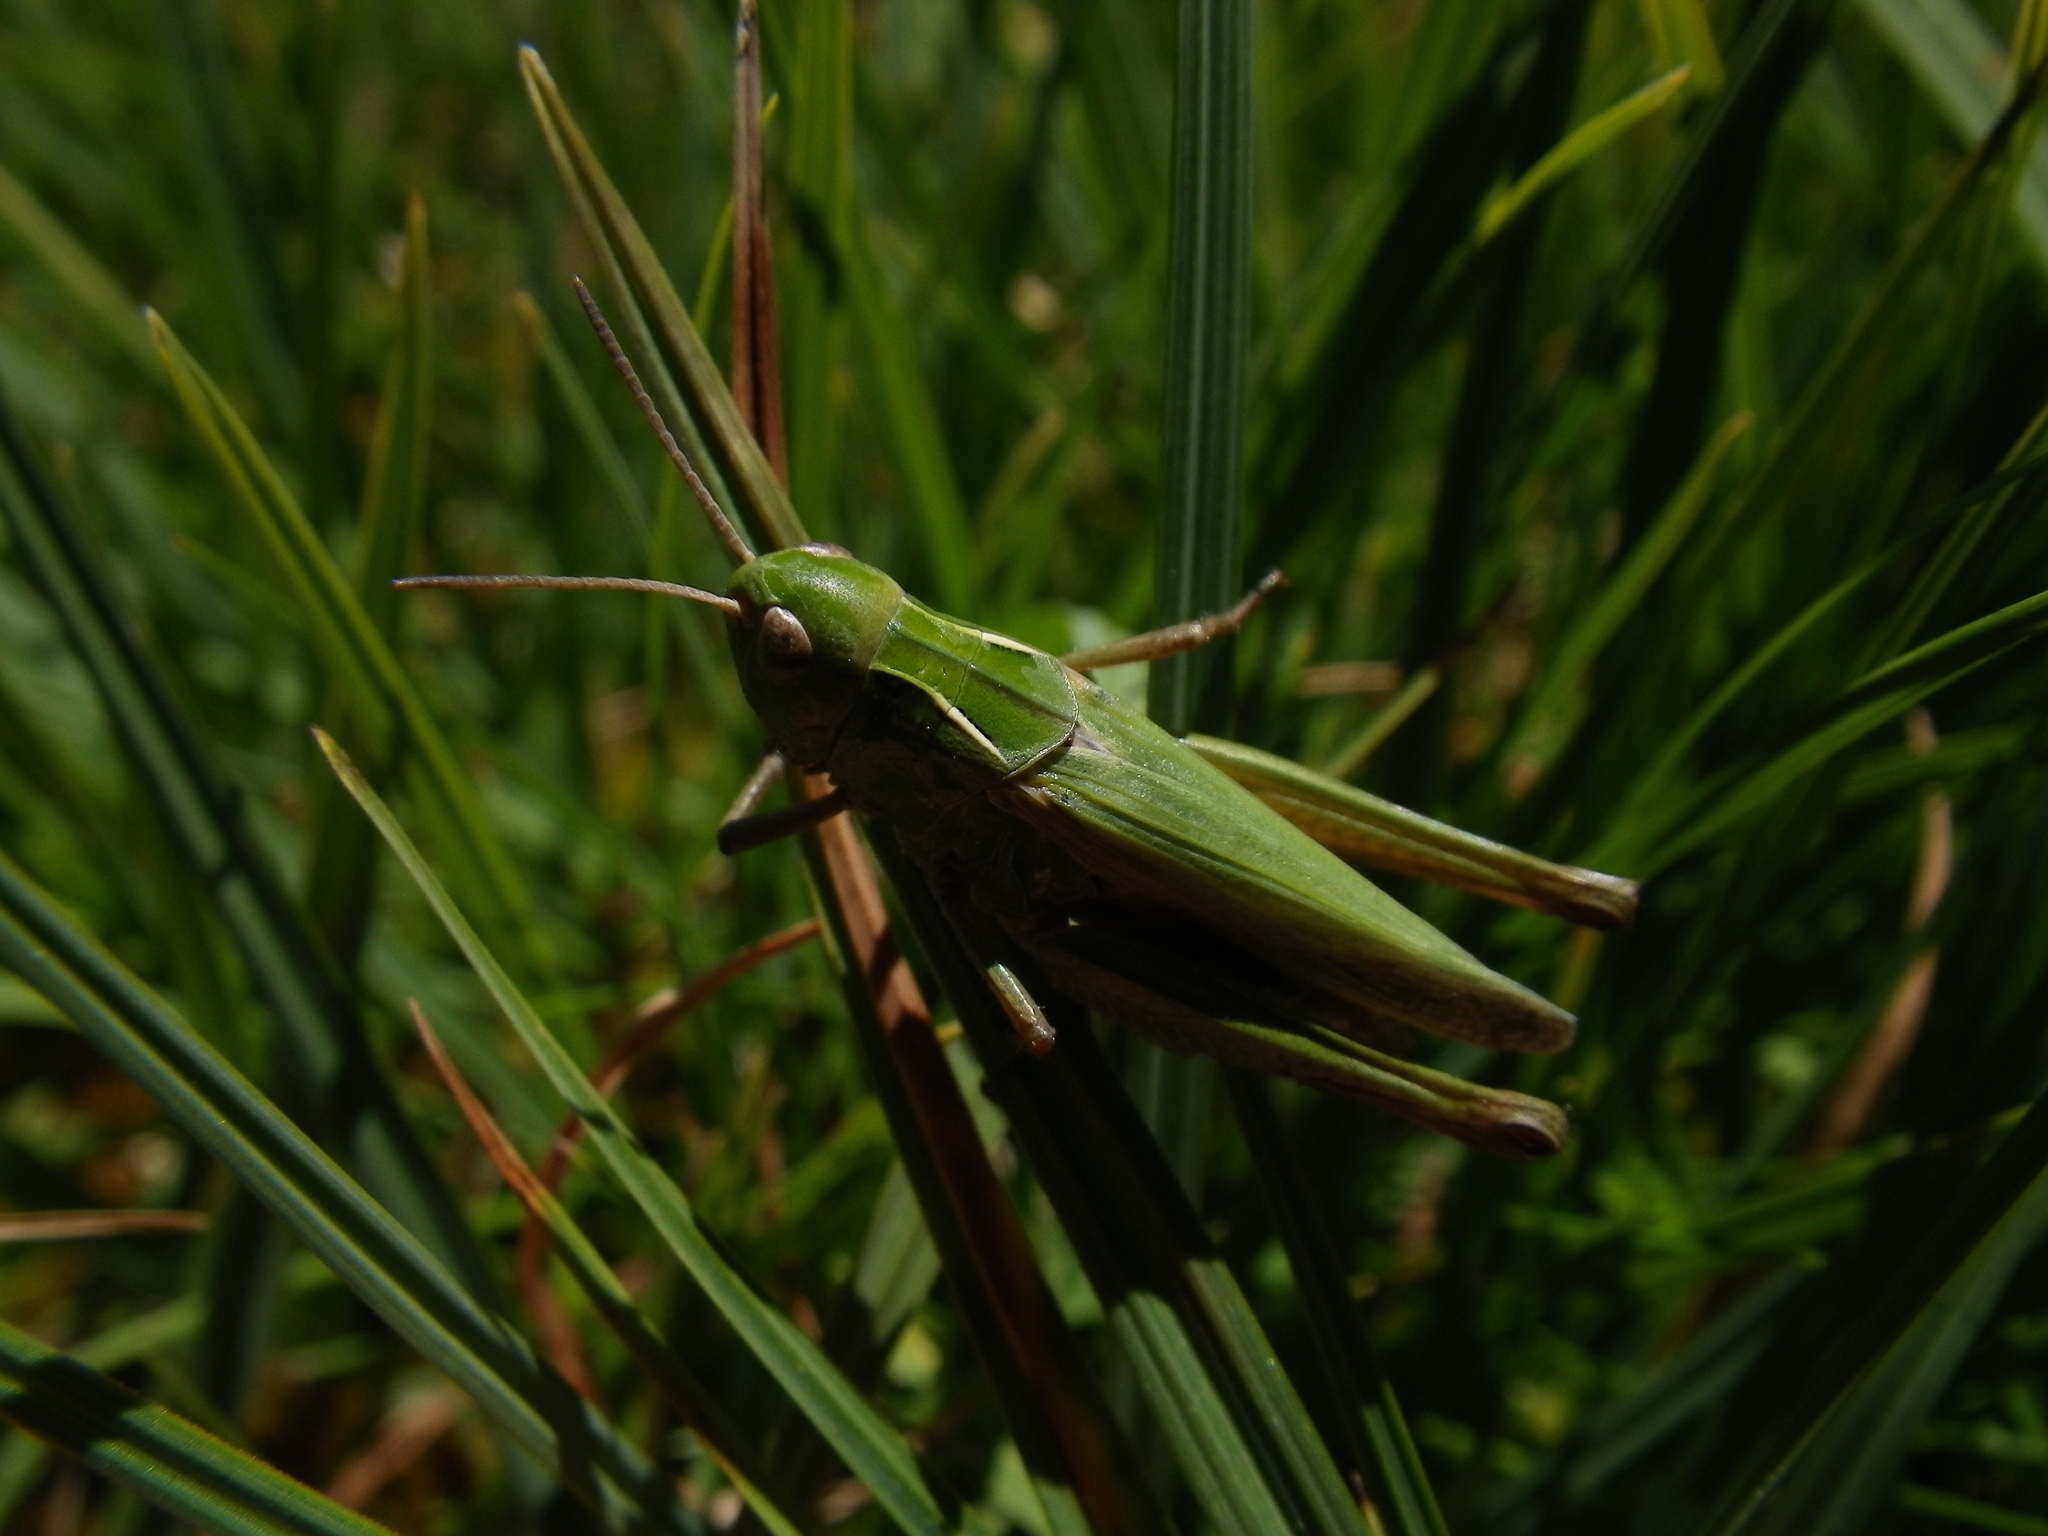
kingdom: Animalia
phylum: Arthropoda
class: Insecta
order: Orthoptera
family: Acrididae
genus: Omocestus
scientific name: Omocestus viridulus
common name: Common green grasshopper
